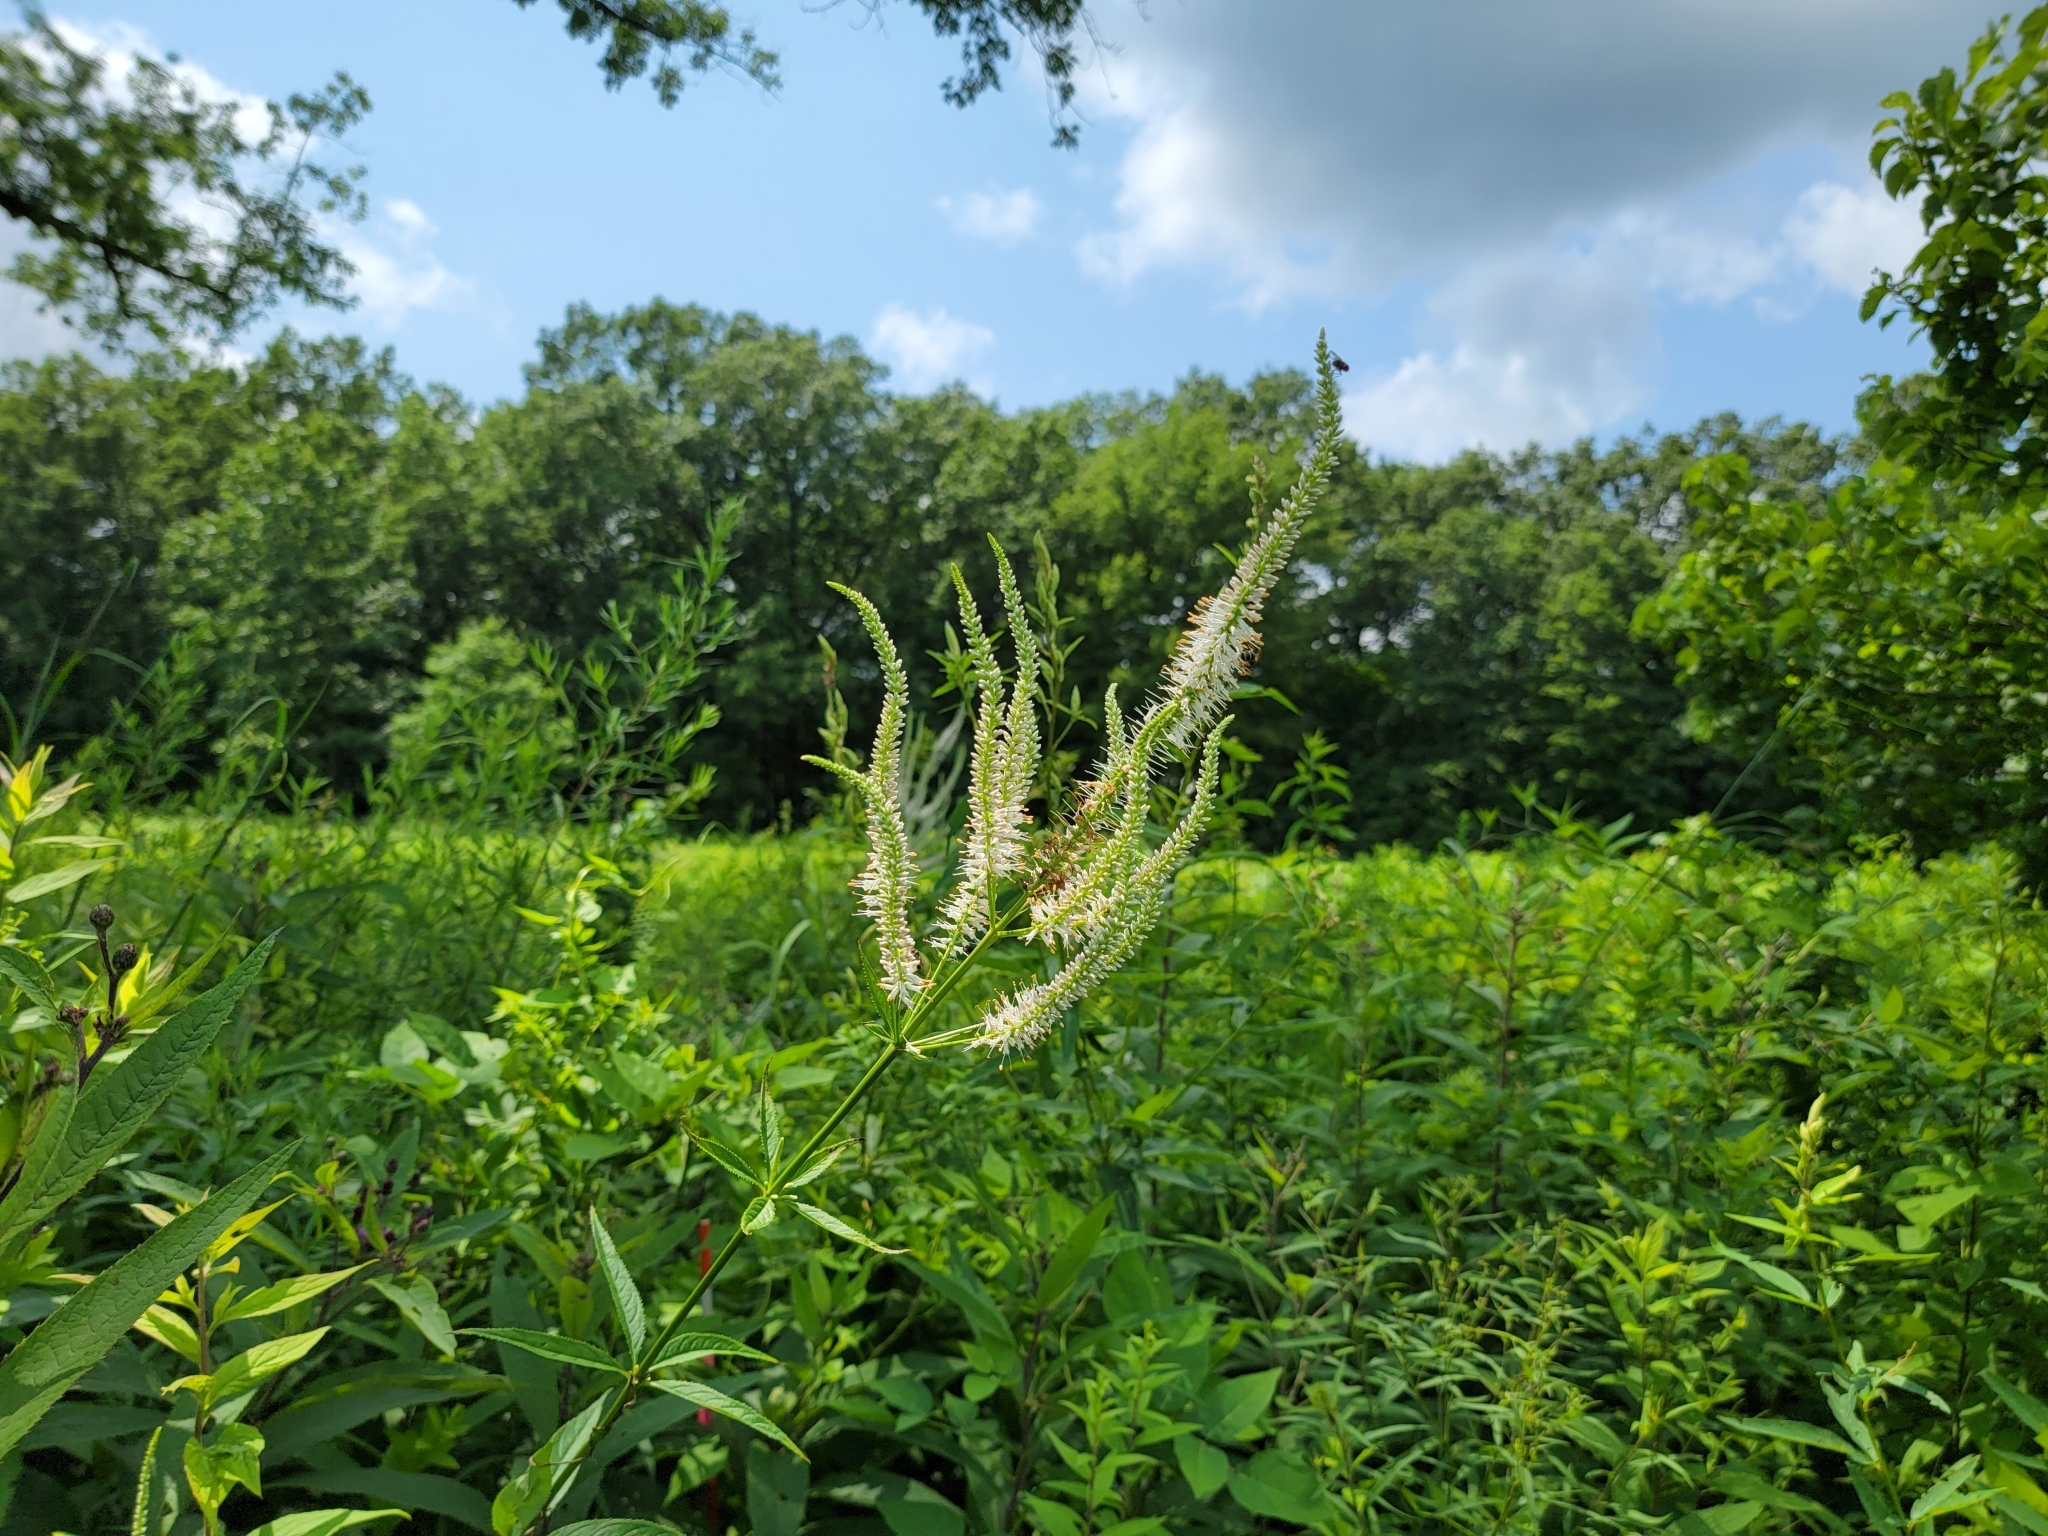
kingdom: Plantae
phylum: Tracheophyta
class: Magnoliopsida
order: Lamiales
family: Plantaginaceae
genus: Veronicastrum
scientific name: Veronicastrum virginicum
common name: Blackroot
